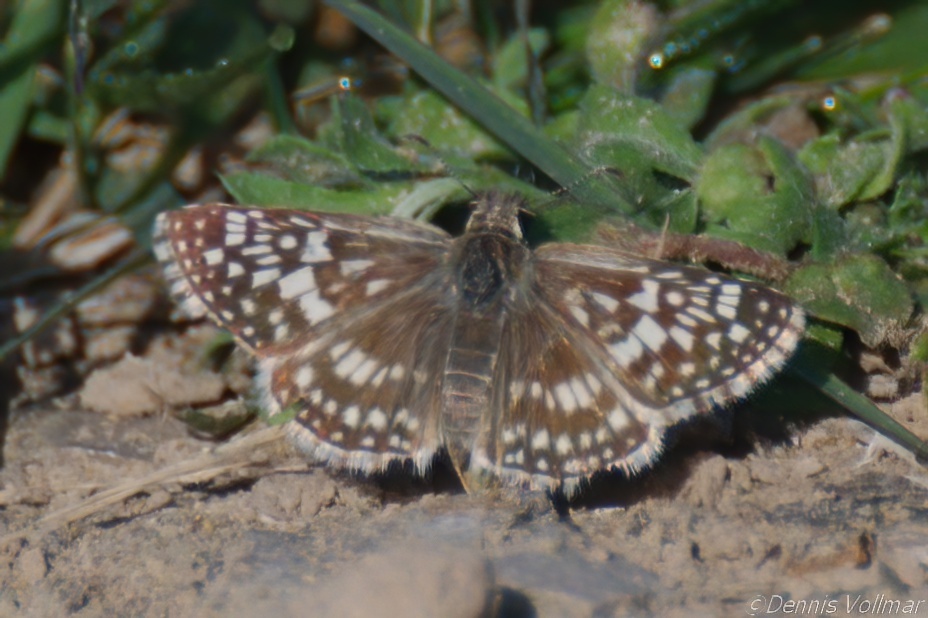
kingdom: Animalia
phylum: Arthropoda
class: Insecta
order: Lepidoptera
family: Hesperiidae
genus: Burnsius
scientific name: Burnsius philetas
